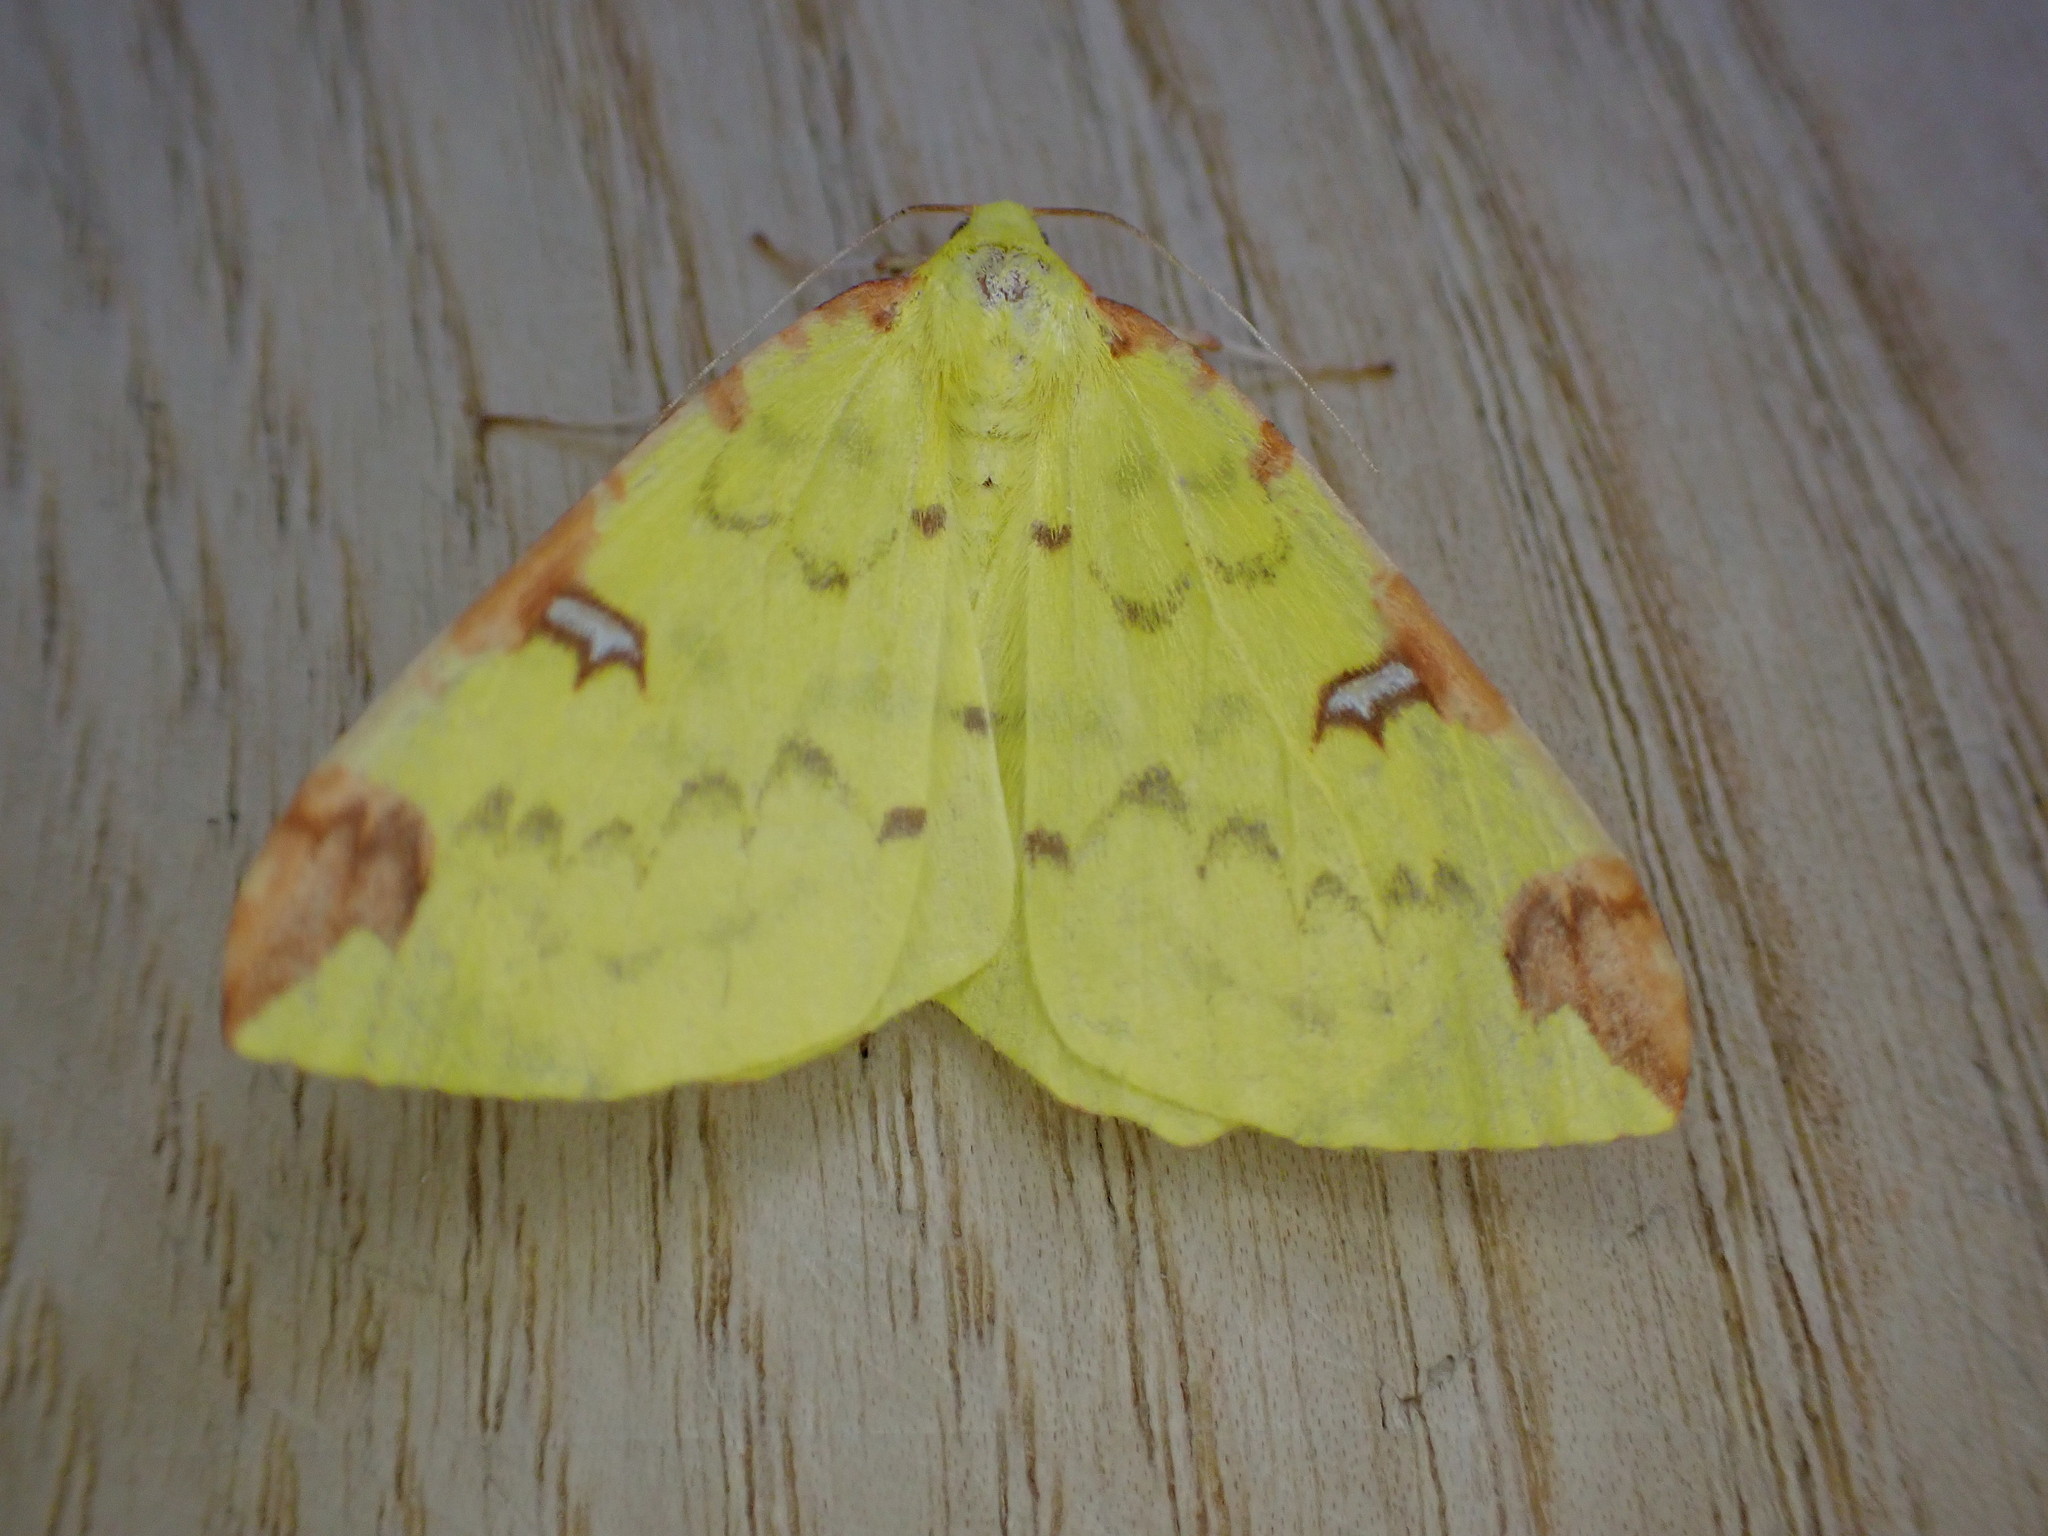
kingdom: Animalia
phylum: Arthropoda
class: Insecta
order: Lepidoptera
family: Geometridae
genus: Opisthograptis
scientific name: Opisthograptis luteolata
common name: Brimstone moth
